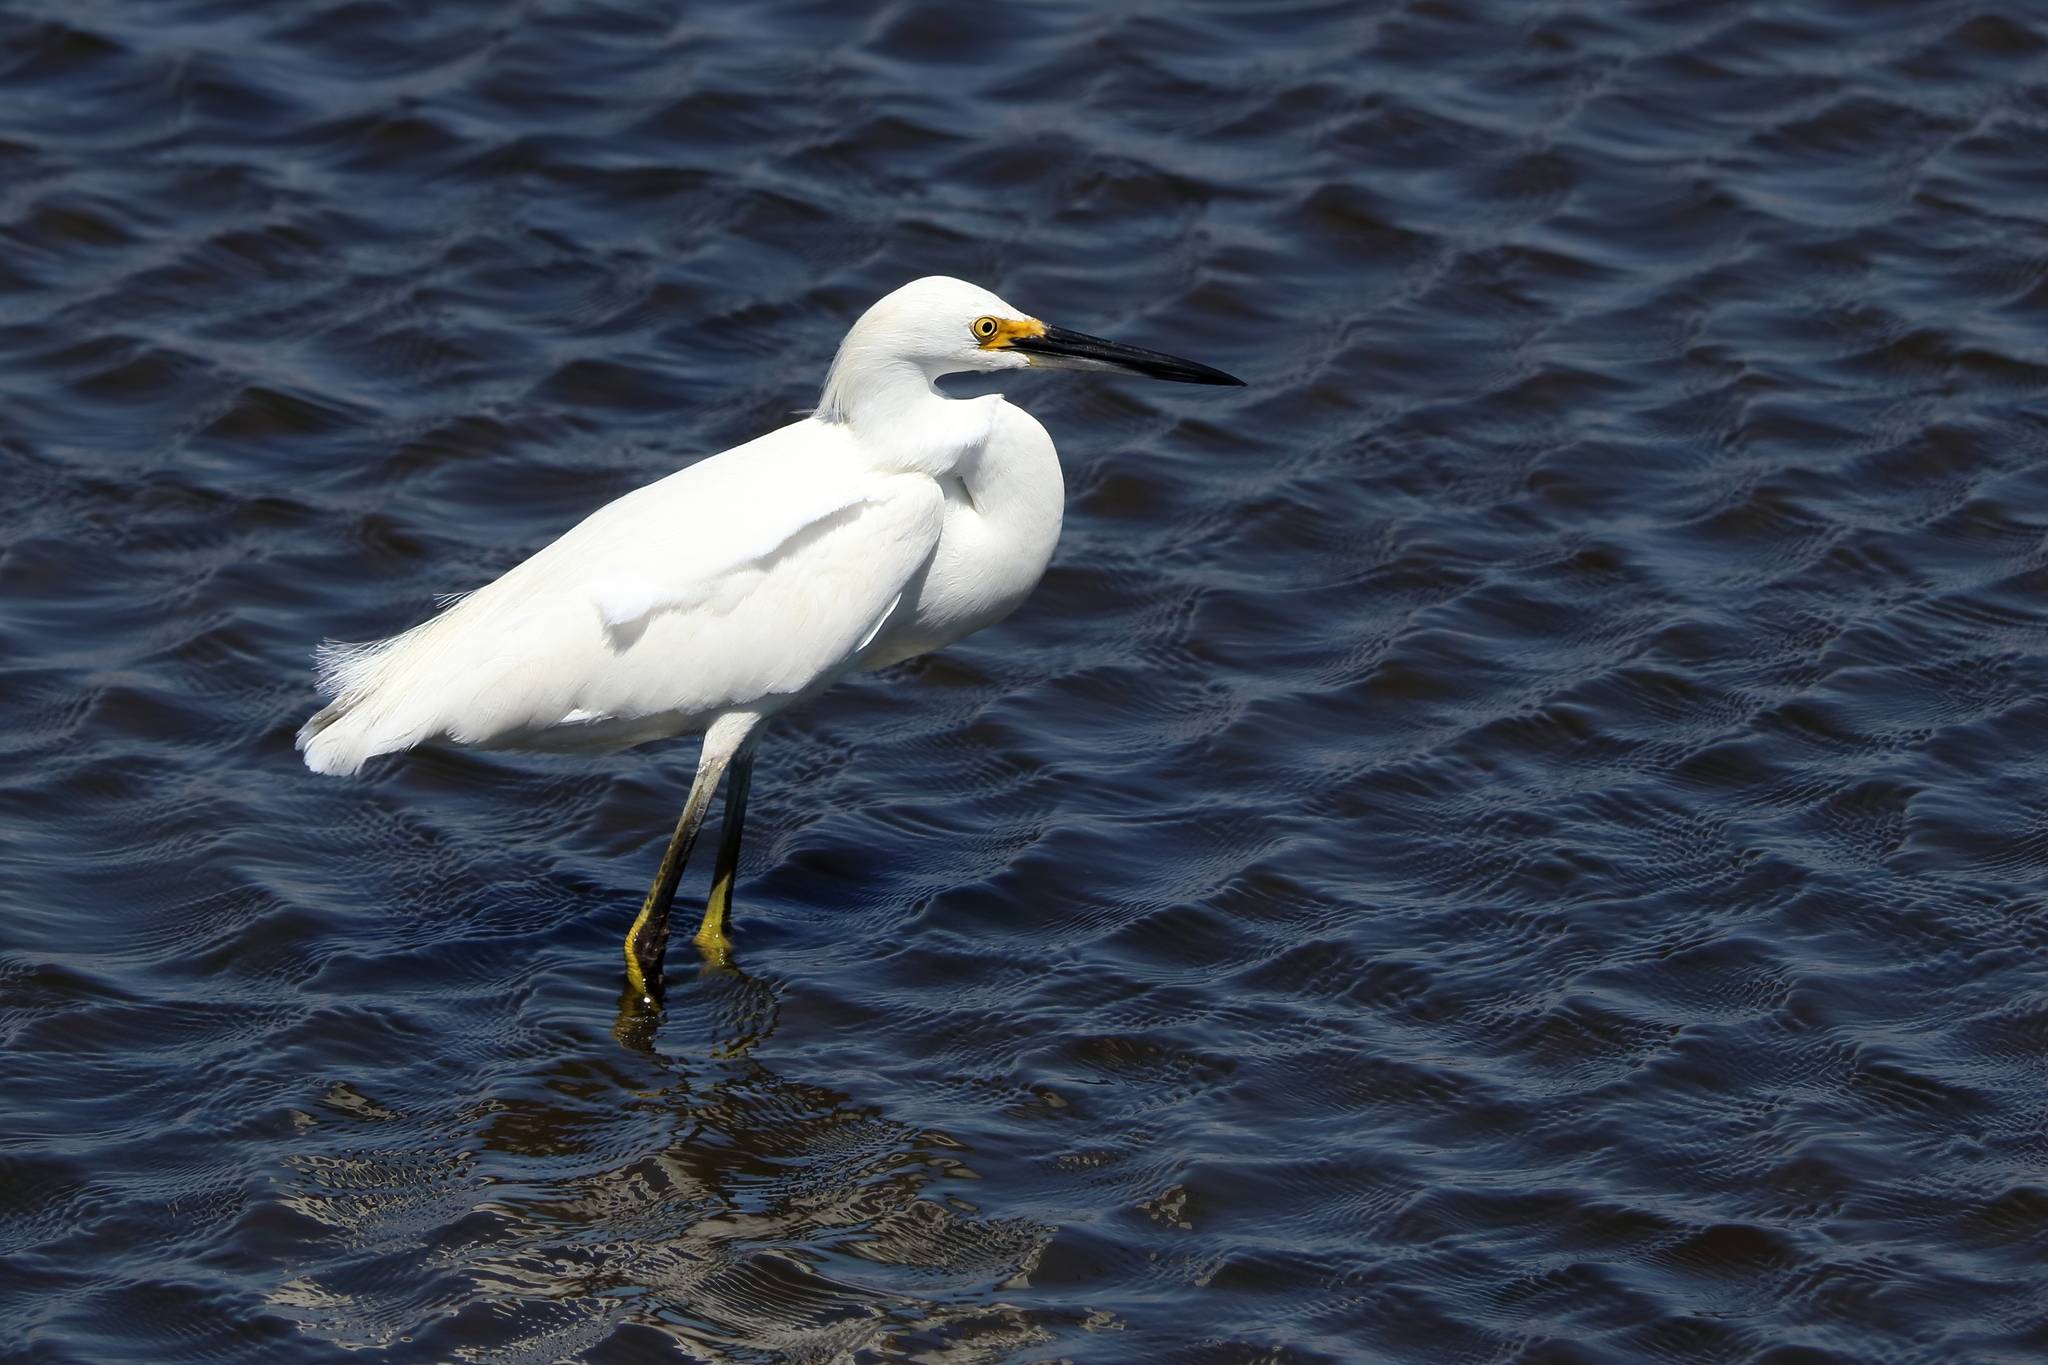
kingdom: Animalia
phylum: Chordata
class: Aves
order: Pelecaniformes
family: Ardeidae
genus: Egretta
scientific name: Egretta thula
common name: Snowy egret
